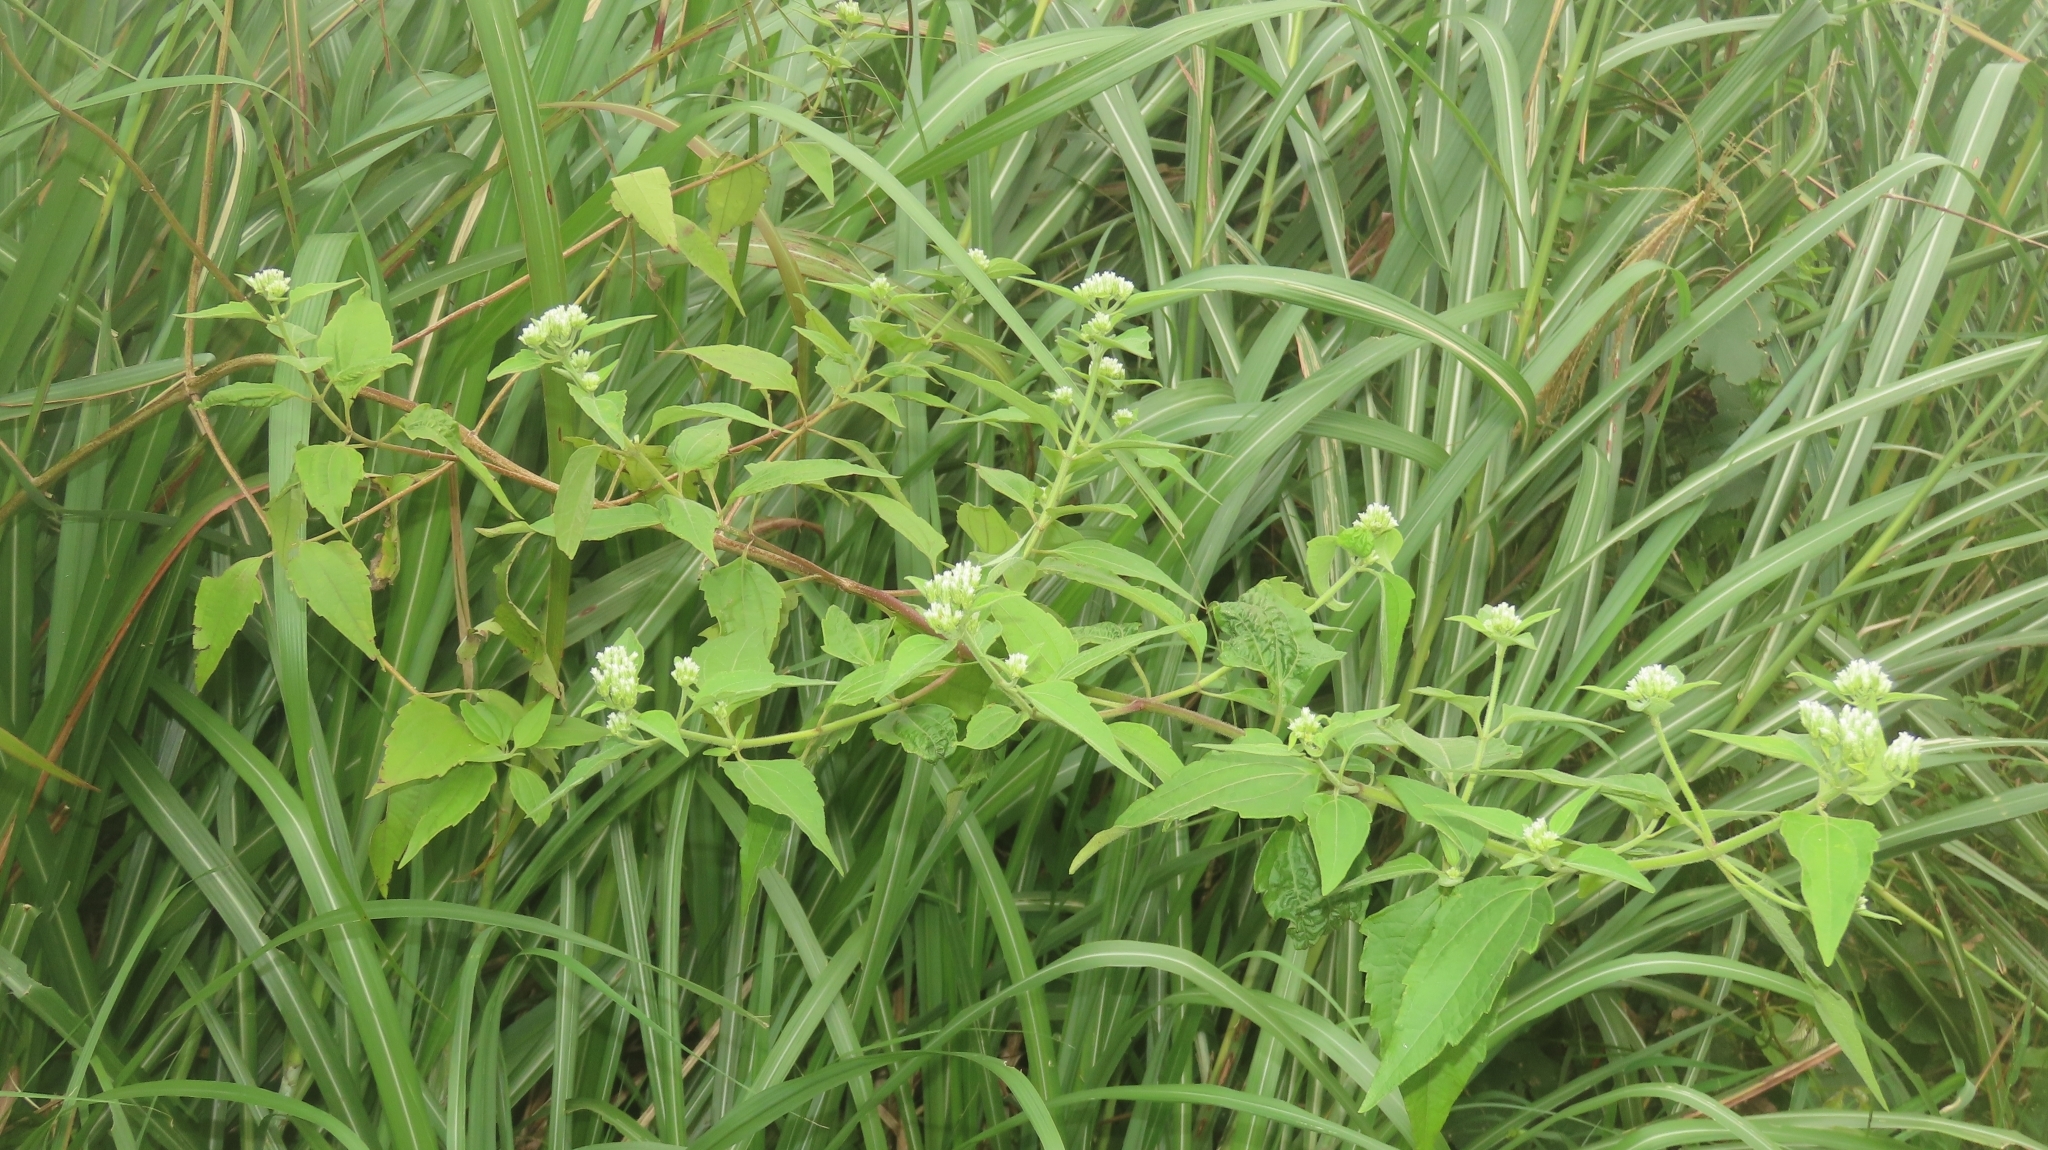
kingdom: Plantae
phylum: Tracheophyta
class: Magnoliopsida
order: Asterales
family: Asteraceae
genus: Chromolaena
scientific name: Chromolaena odorata
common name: Siamweed
